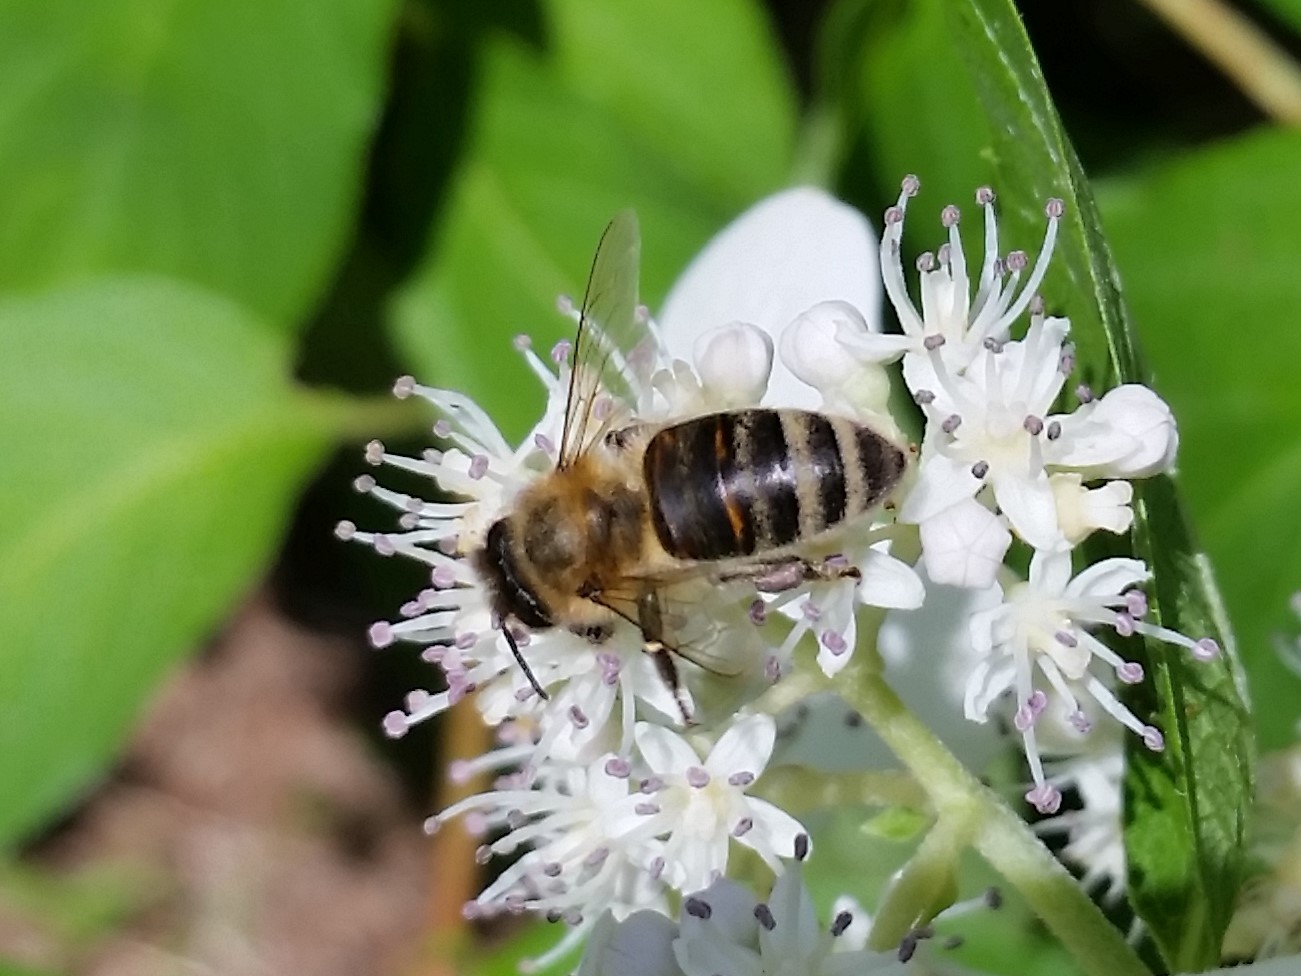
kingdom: Animalia
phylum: Arthropoda
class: Insecta
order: Hymenoptera
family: Apidae
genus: Apis
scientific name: Apis mellifera
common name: Honey bee
